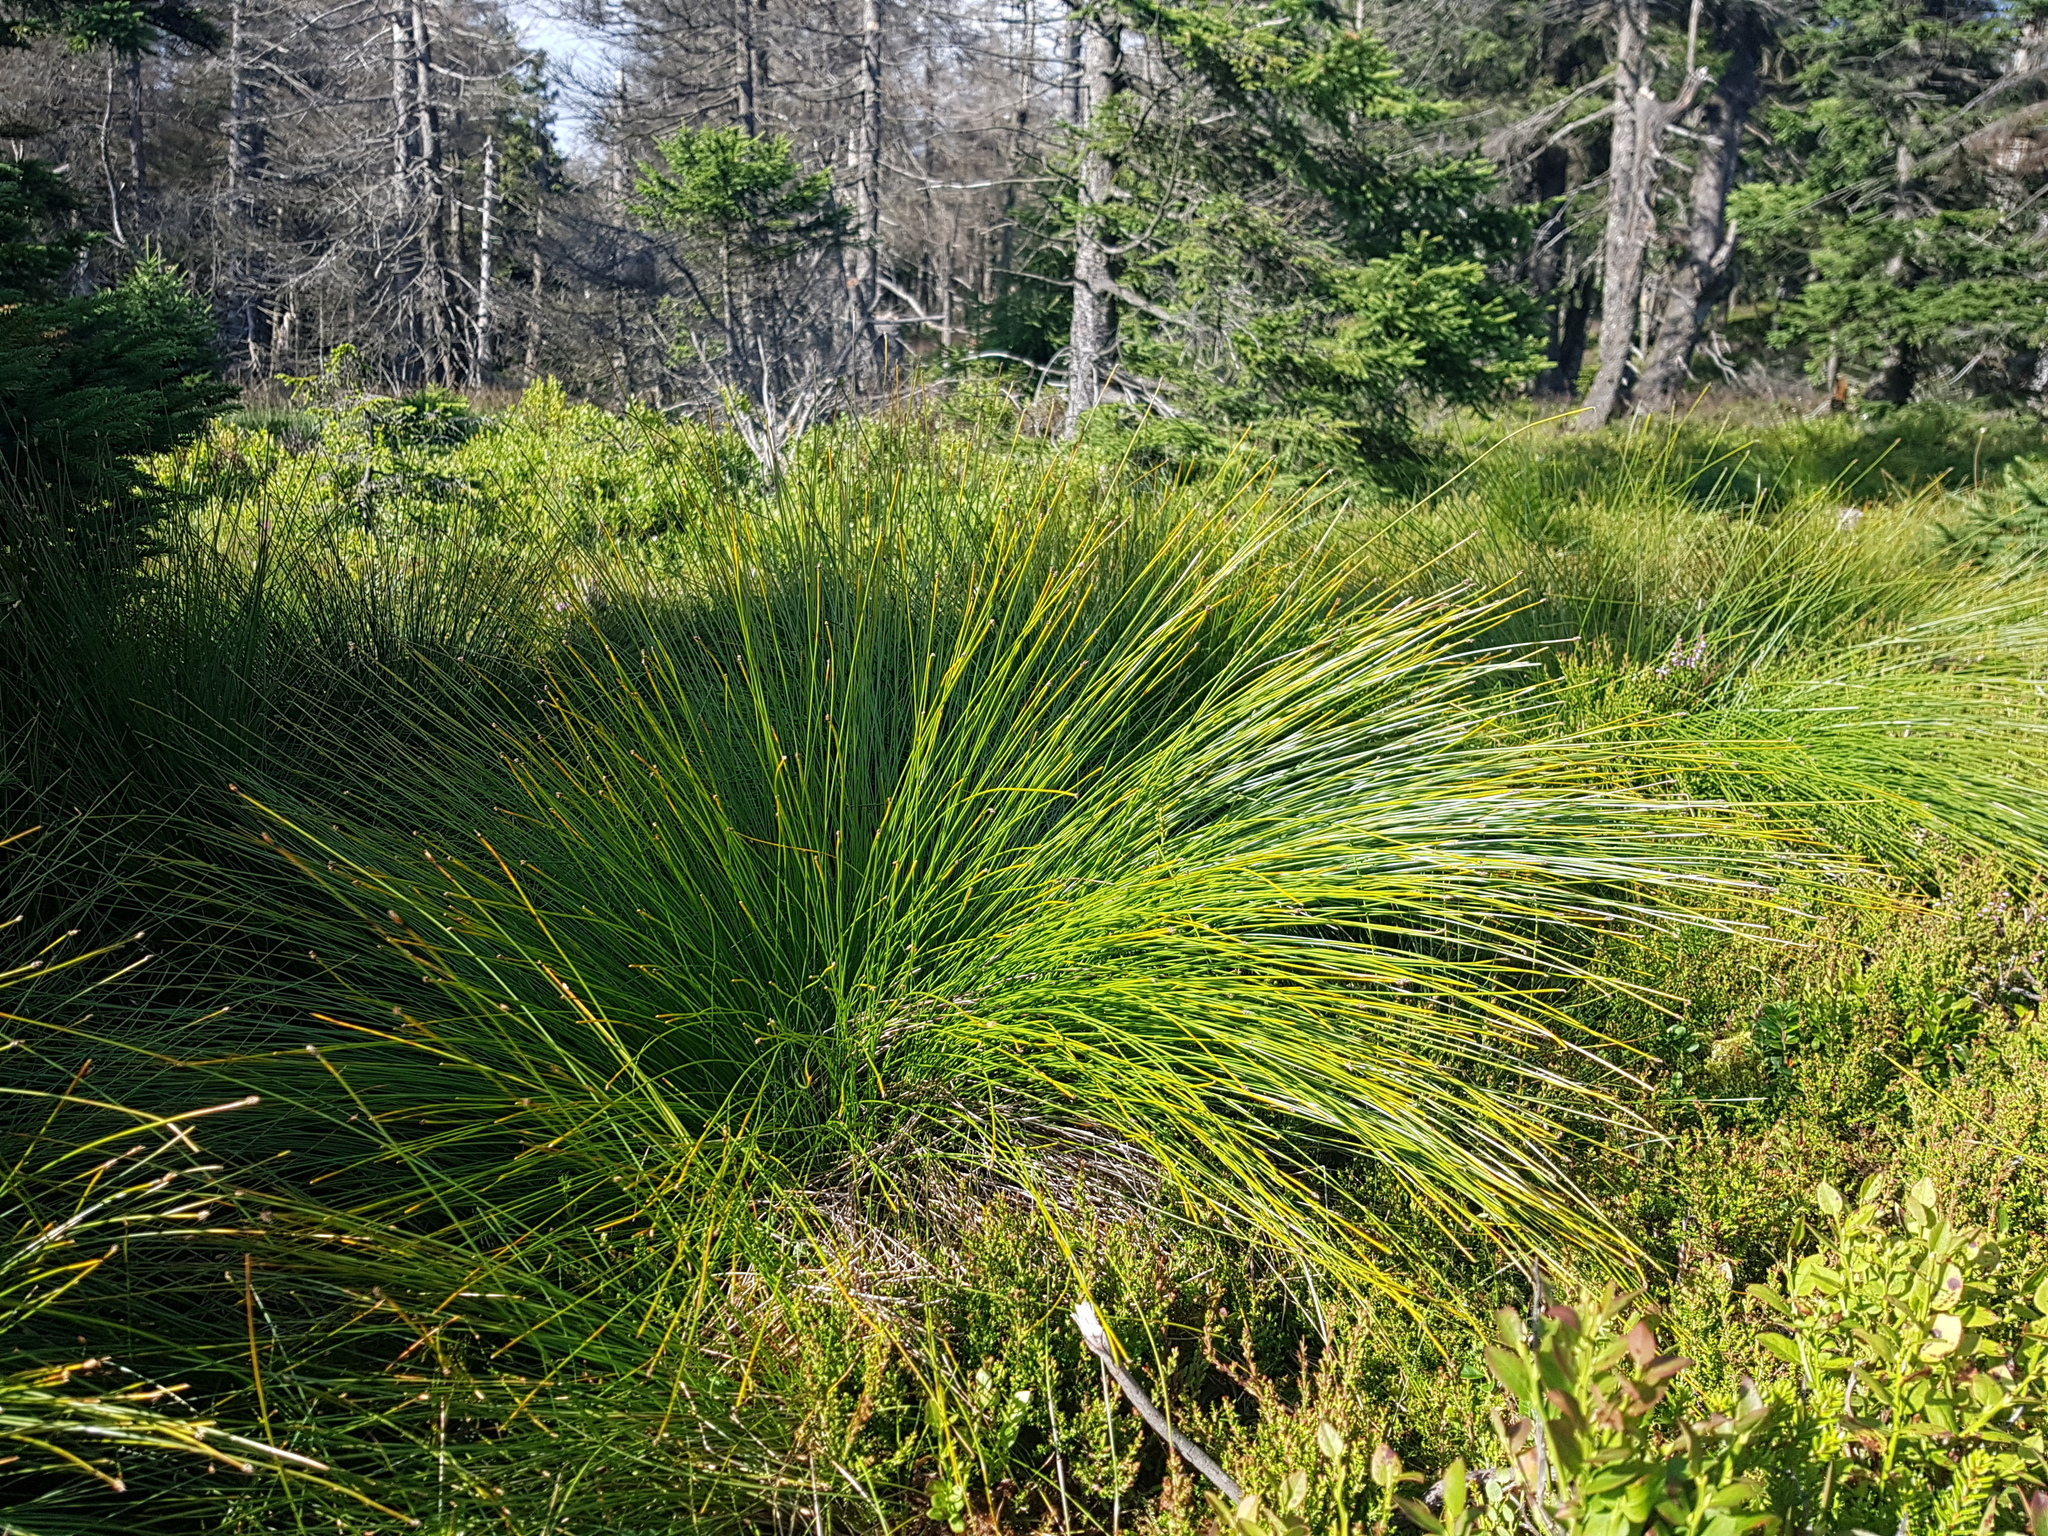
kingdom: Plantae
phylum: Tracheophyta
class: Liliopsida
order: Poales
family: Cyperaceae
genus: Trichophorum
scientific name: Trichophorum cespitosum
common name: Cespitose bulrush
